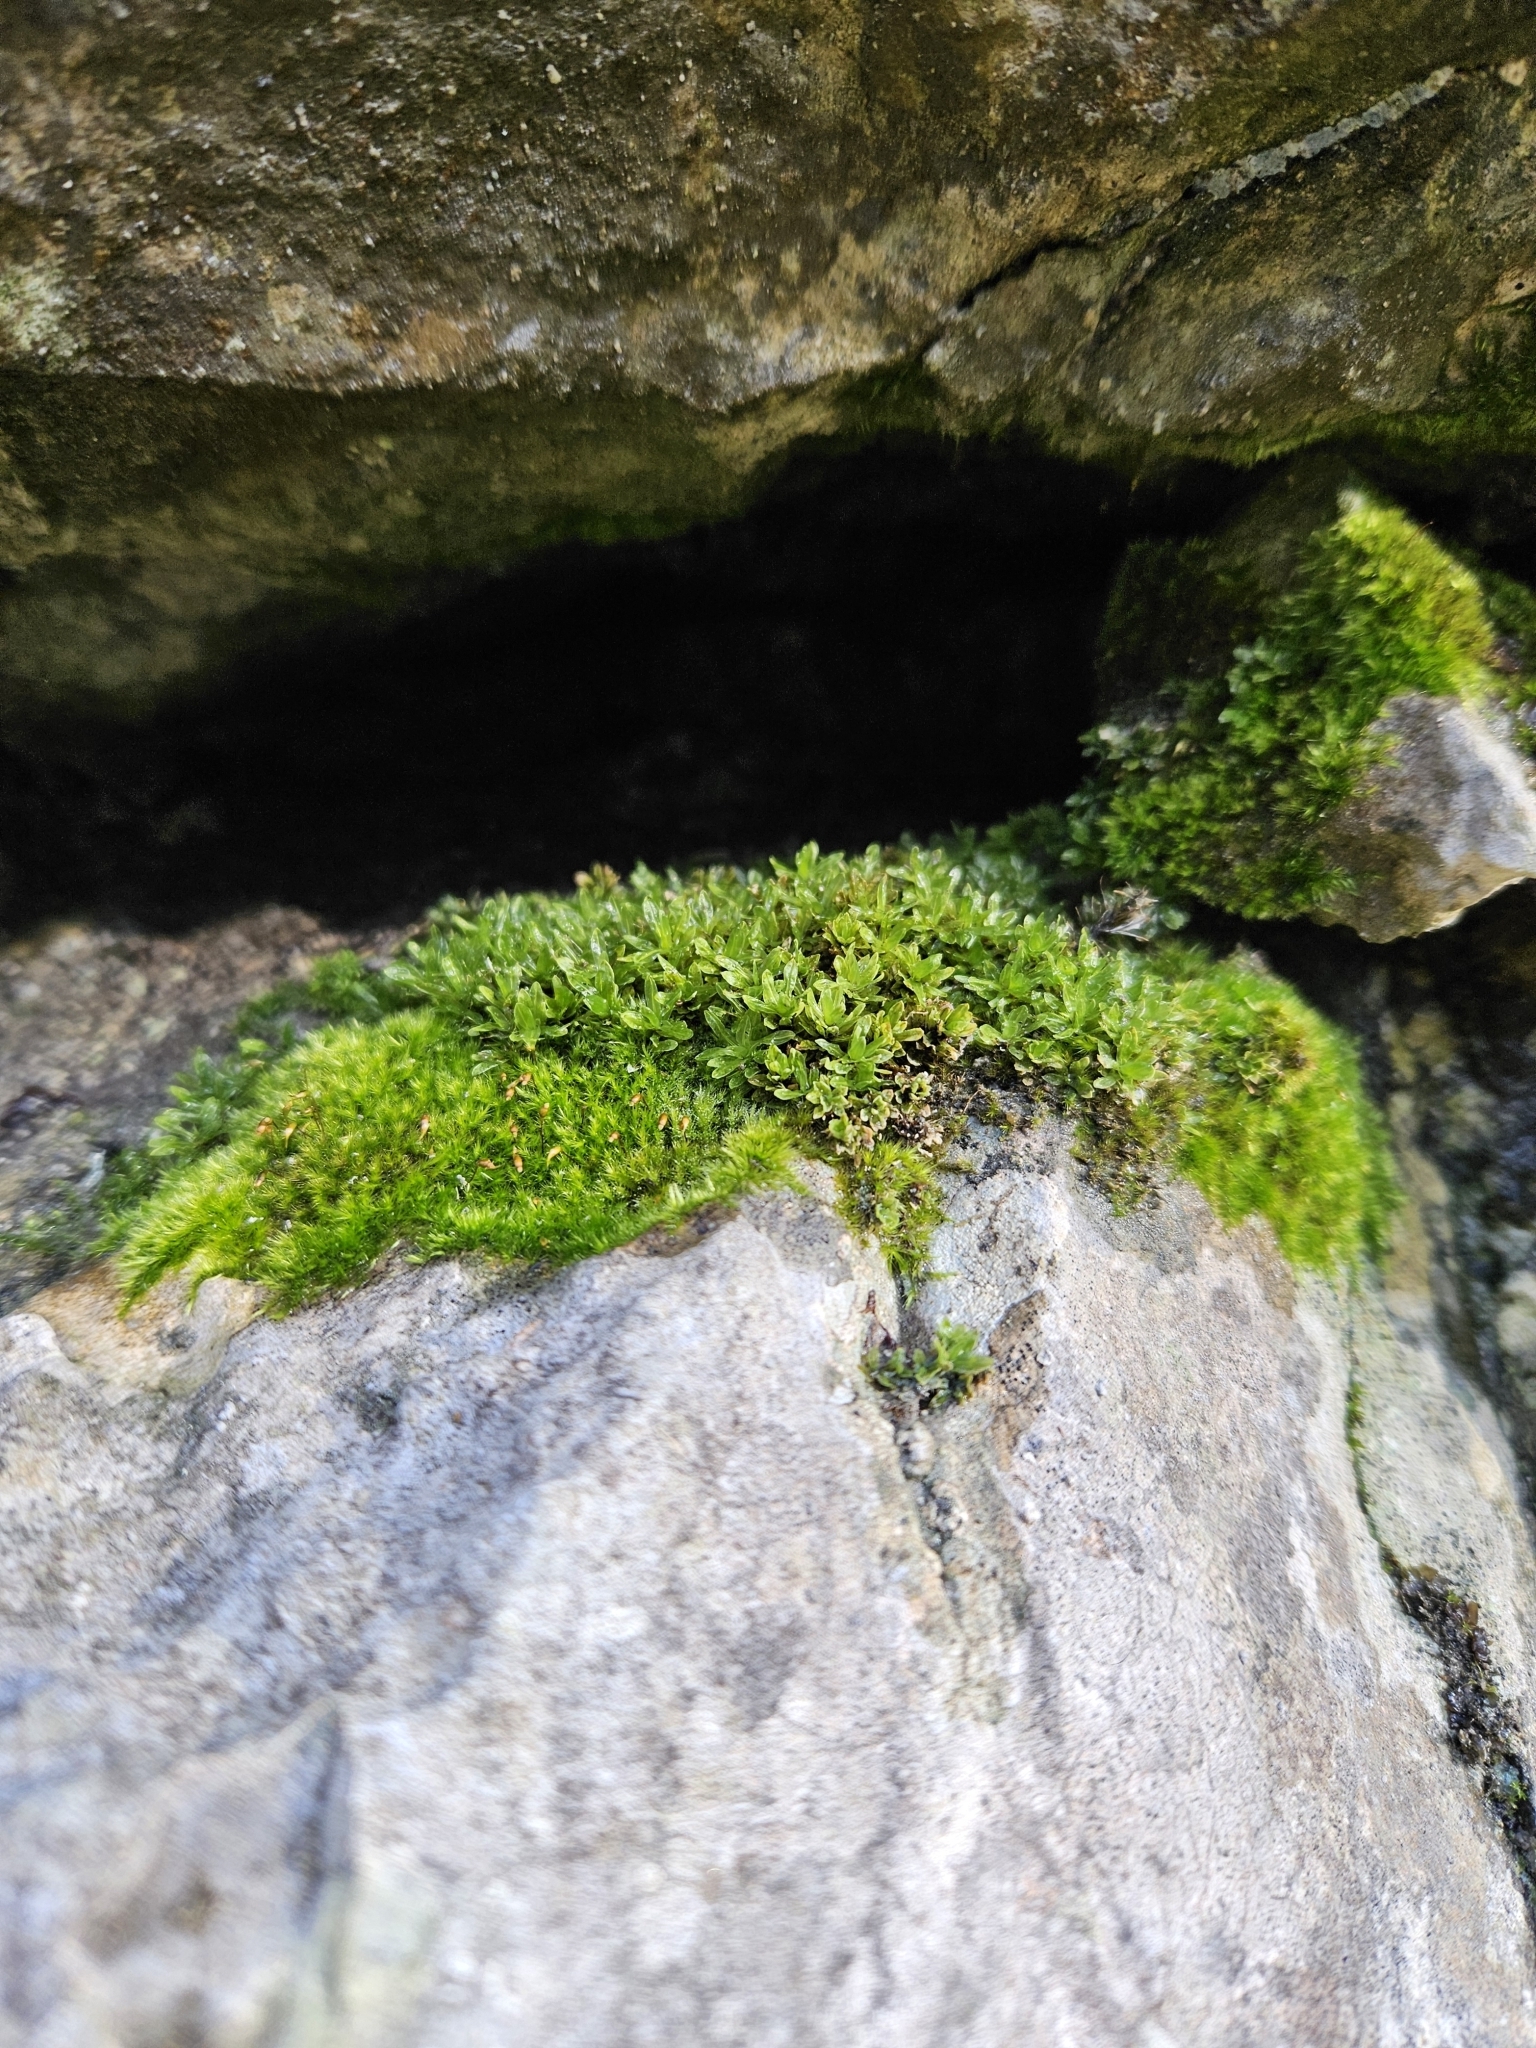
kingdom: Plantae
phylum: Bryophyta
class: Bryopsida
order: Hypnales
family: Brachytheciaceae
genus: Rhynchostegiella
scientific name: Rhynchostegiella tenella
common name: Tender feather-moss
